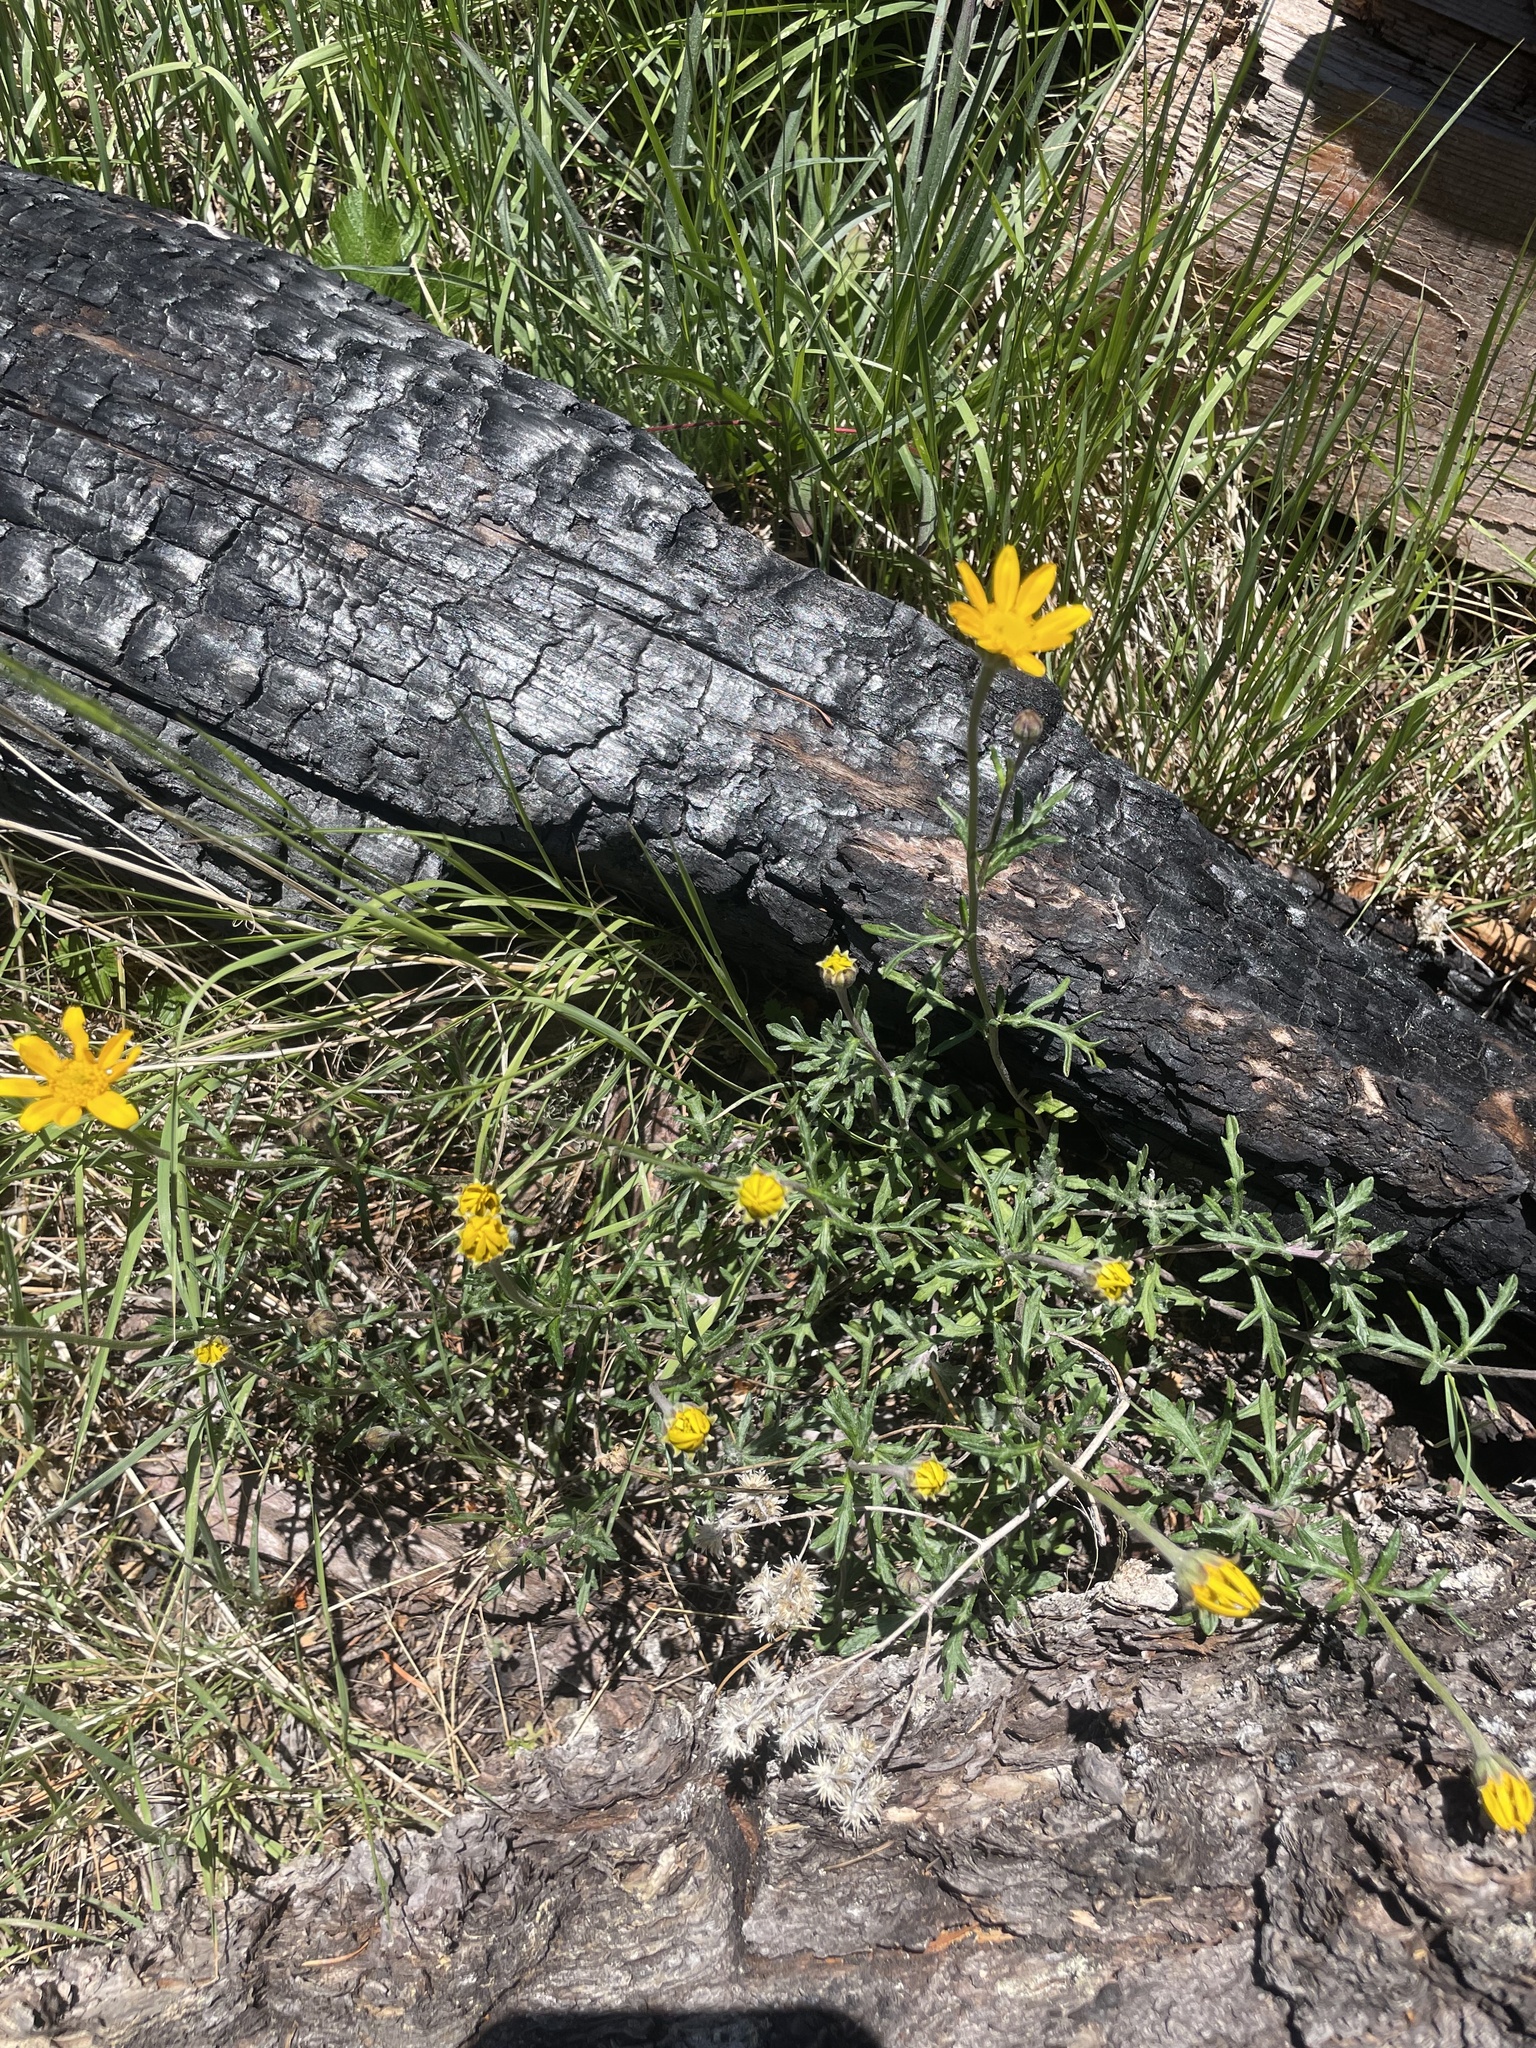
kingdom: Plantae
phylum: Tracheophyta
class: Magnoliopsida
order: Asterales
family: Asteraceae
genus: Eriophyllum
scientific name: Eriophyllum lanatum
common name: Common woolly-sunflower
